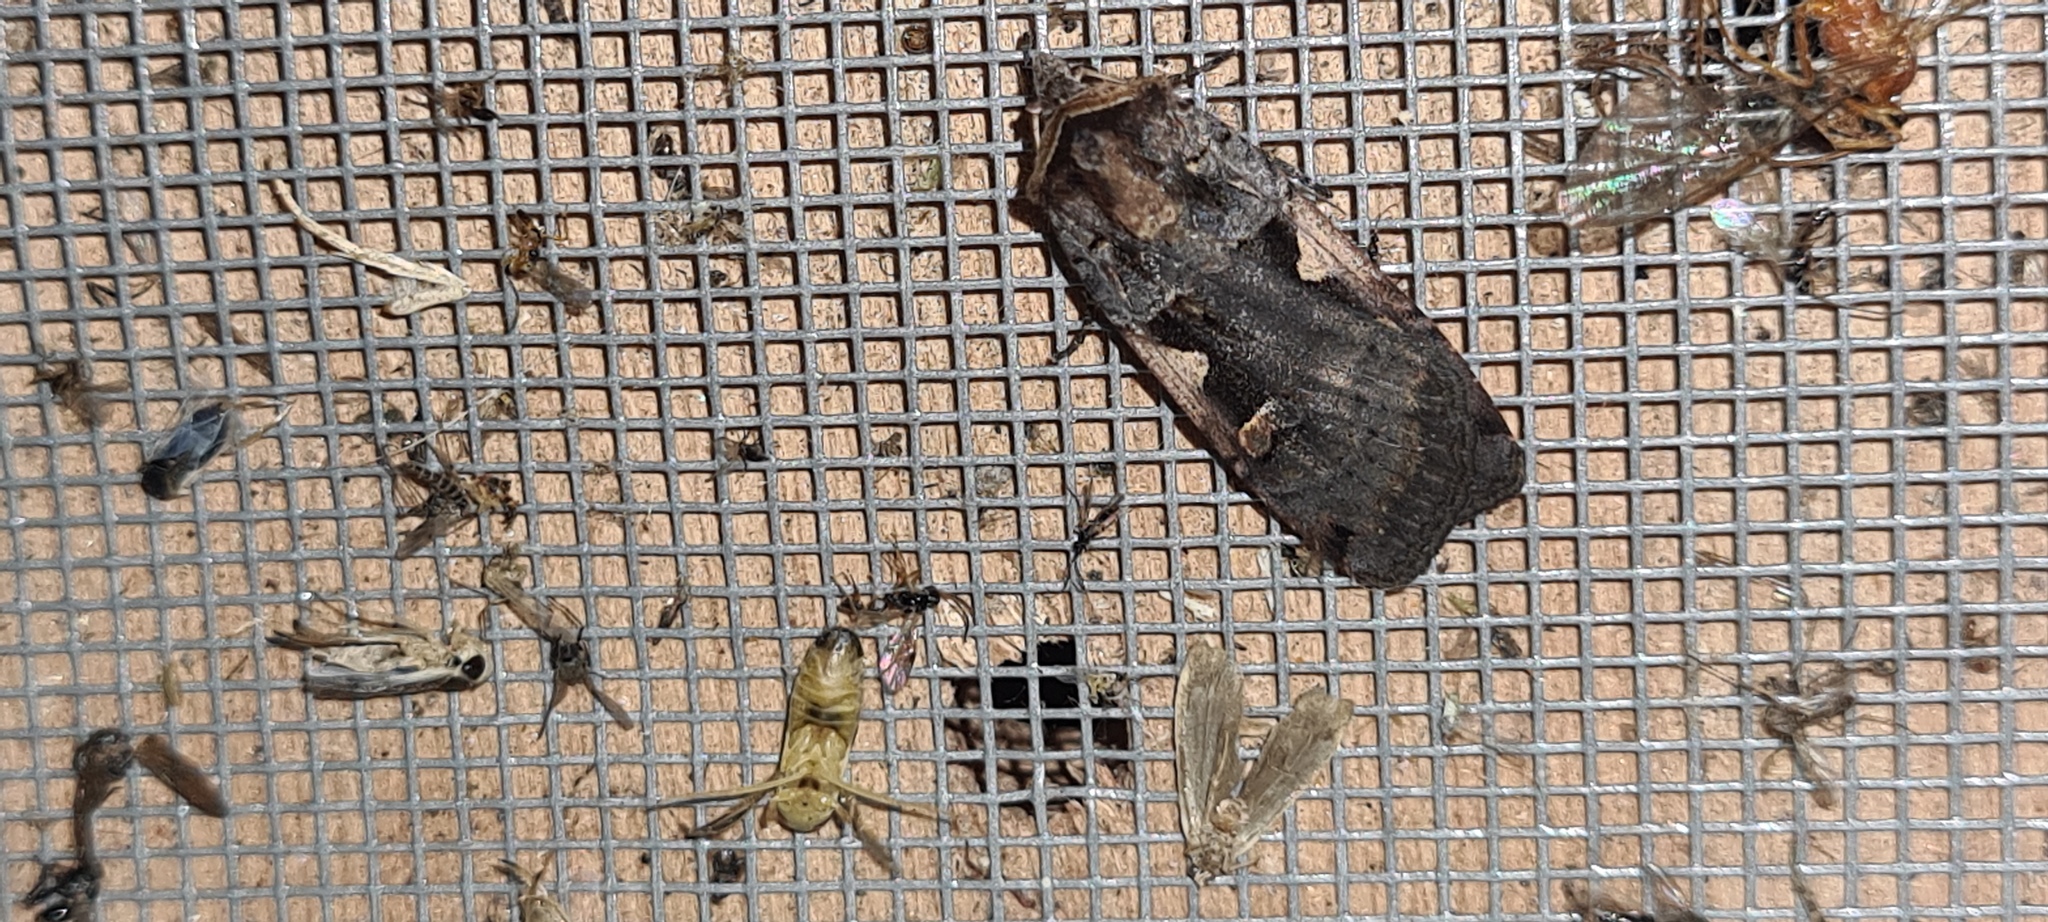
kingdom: Animalia
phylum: Arthropoda
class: Insecta
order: Lepidoptera
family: Noctuidae
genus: Xestia
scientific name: Xestia c-nigrum
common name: Setaceous hebrew character
